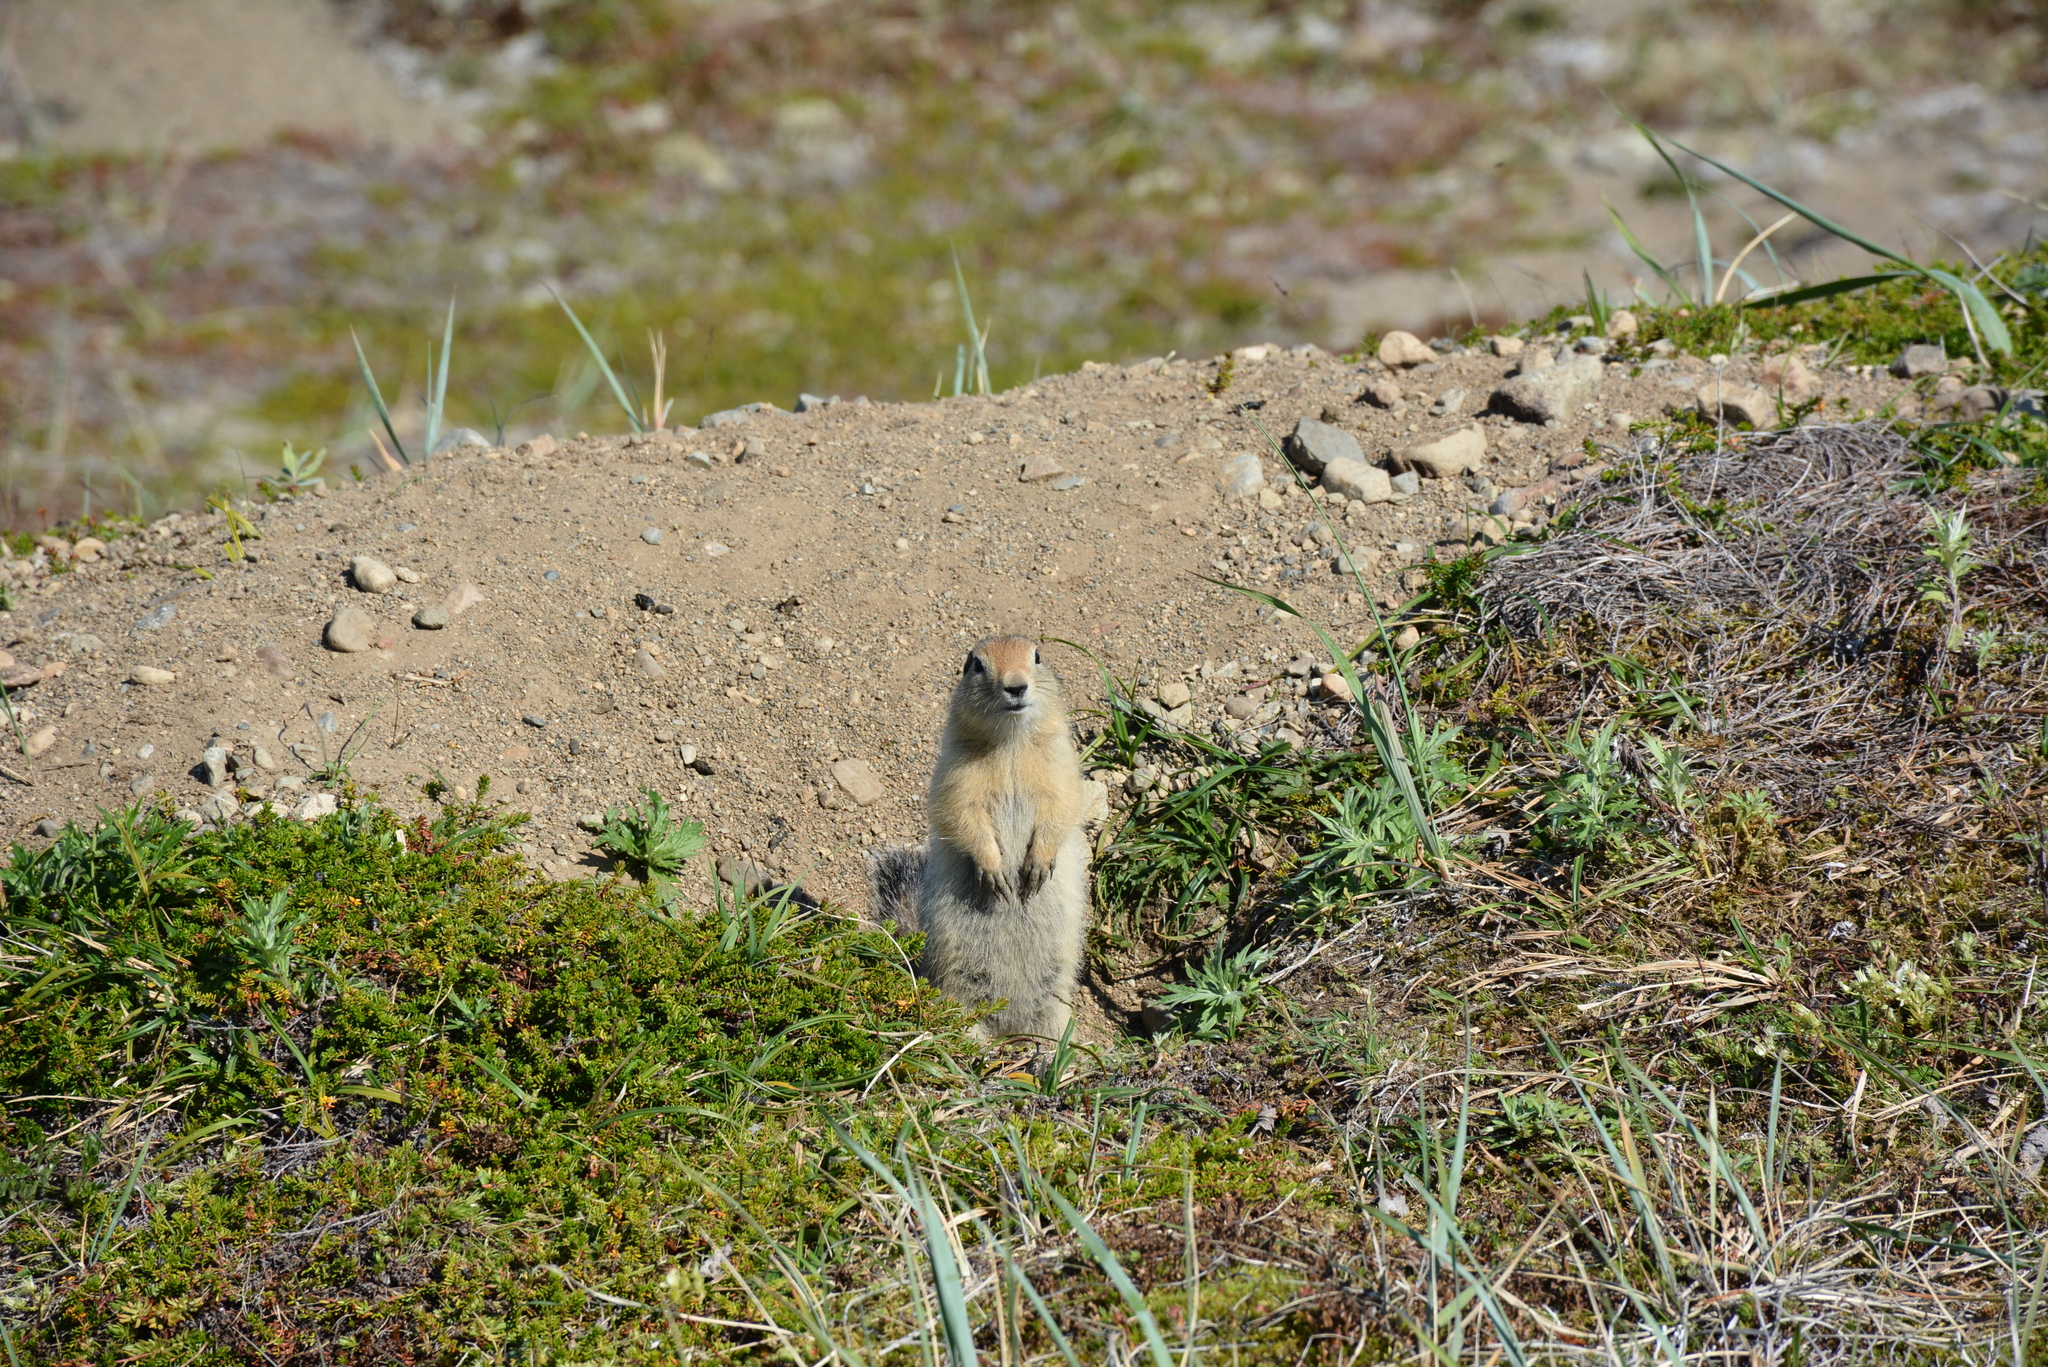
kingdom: Animalia
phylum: Chordata
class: Mammalia
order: Rodentia
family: Sciuridae
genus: Urocitellus
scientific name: Urocitellus parryii
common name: Arctic ground squirrel
